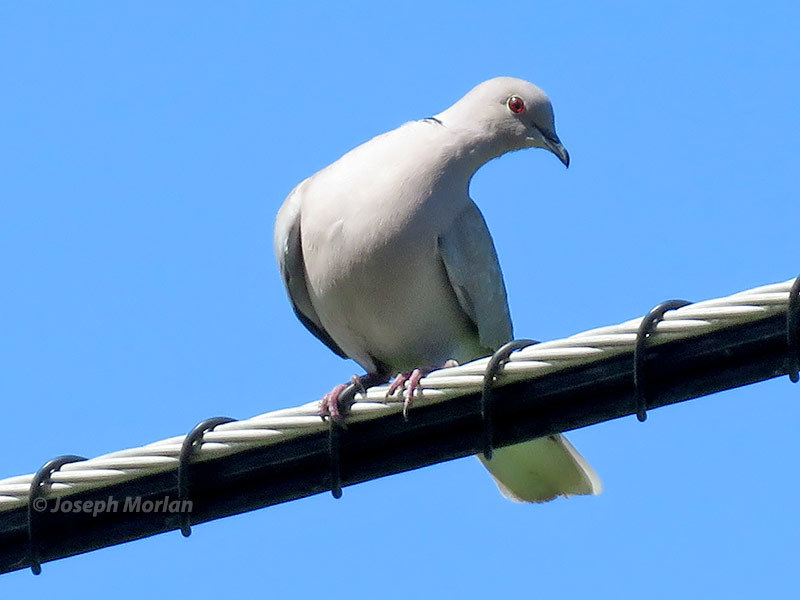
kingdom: Animalia
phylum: Chordata
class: Aves
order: Columbiformes
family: Columbidae
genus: Streptopelia
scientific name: Streptopelia decaocto
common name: Eurasian collared dove
